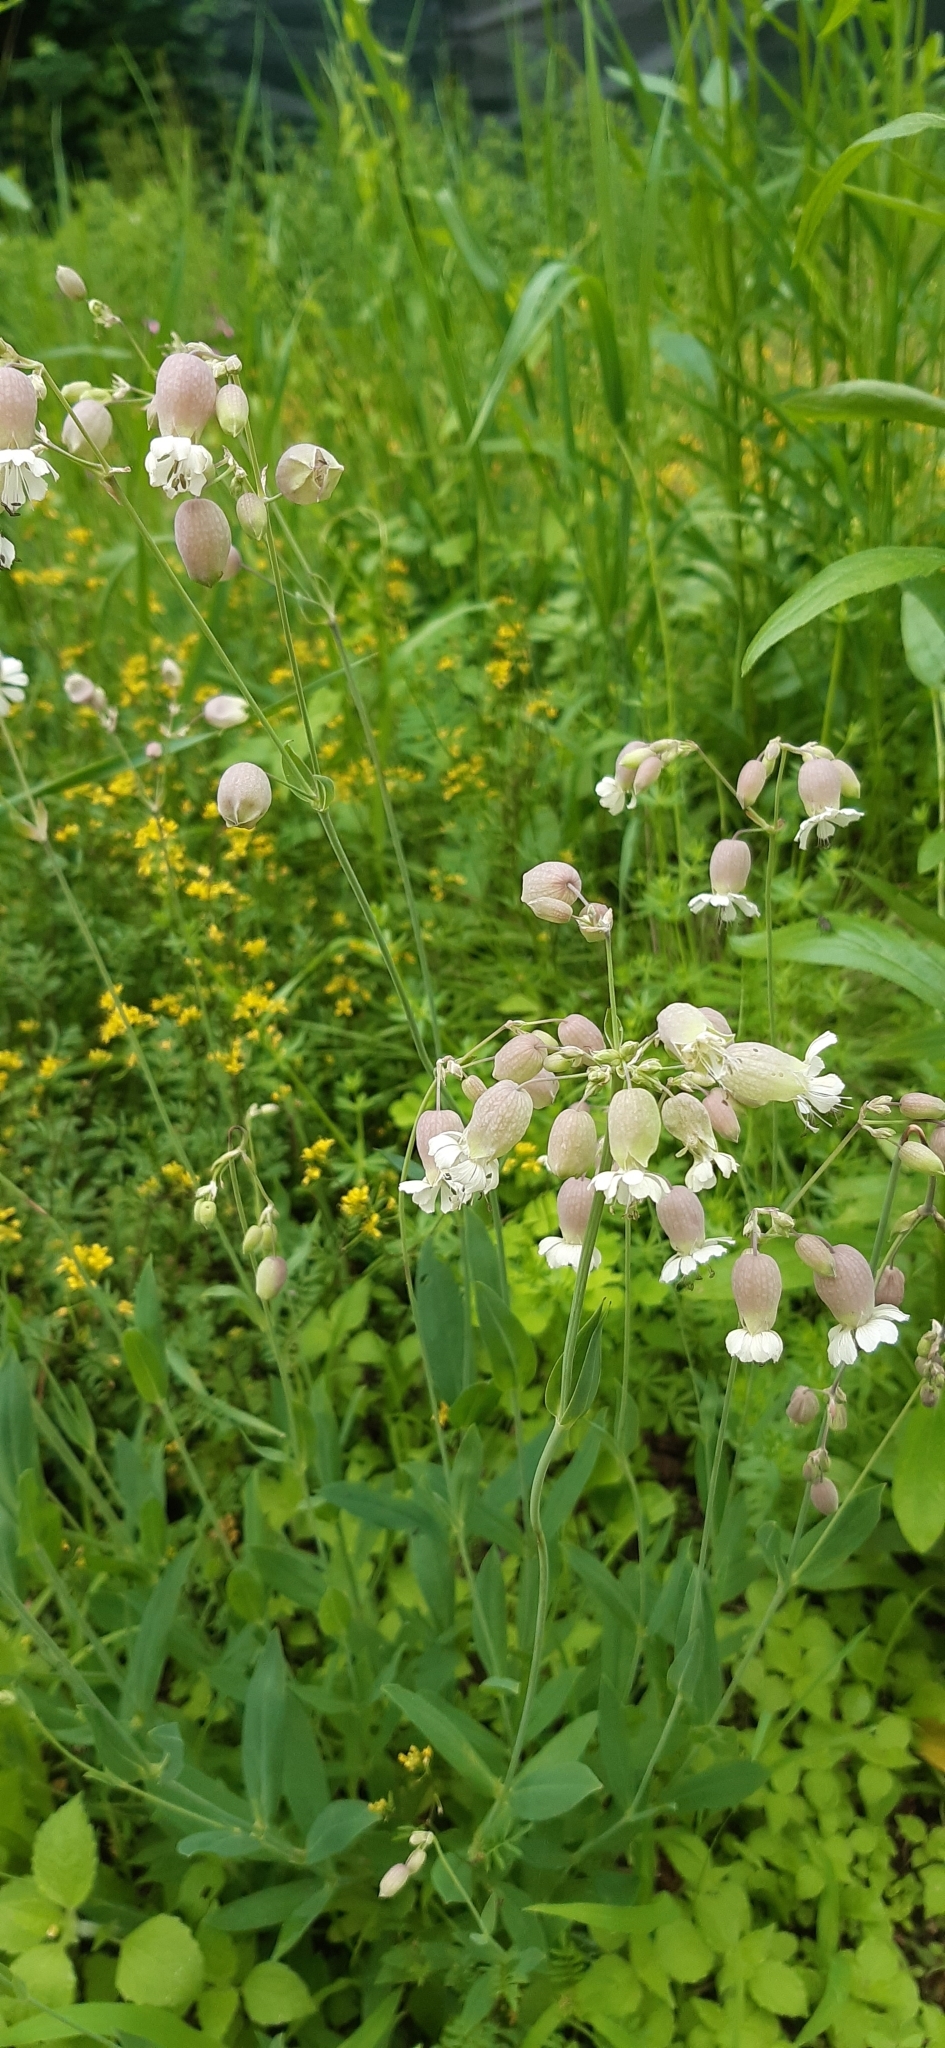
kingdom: Plantae
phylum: Tracheophyta
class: Magnoliopsida
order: Caryophyllales
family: Caryophyllaceae
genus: Silene
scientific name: Silene vulgaris
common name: Bladder campion
